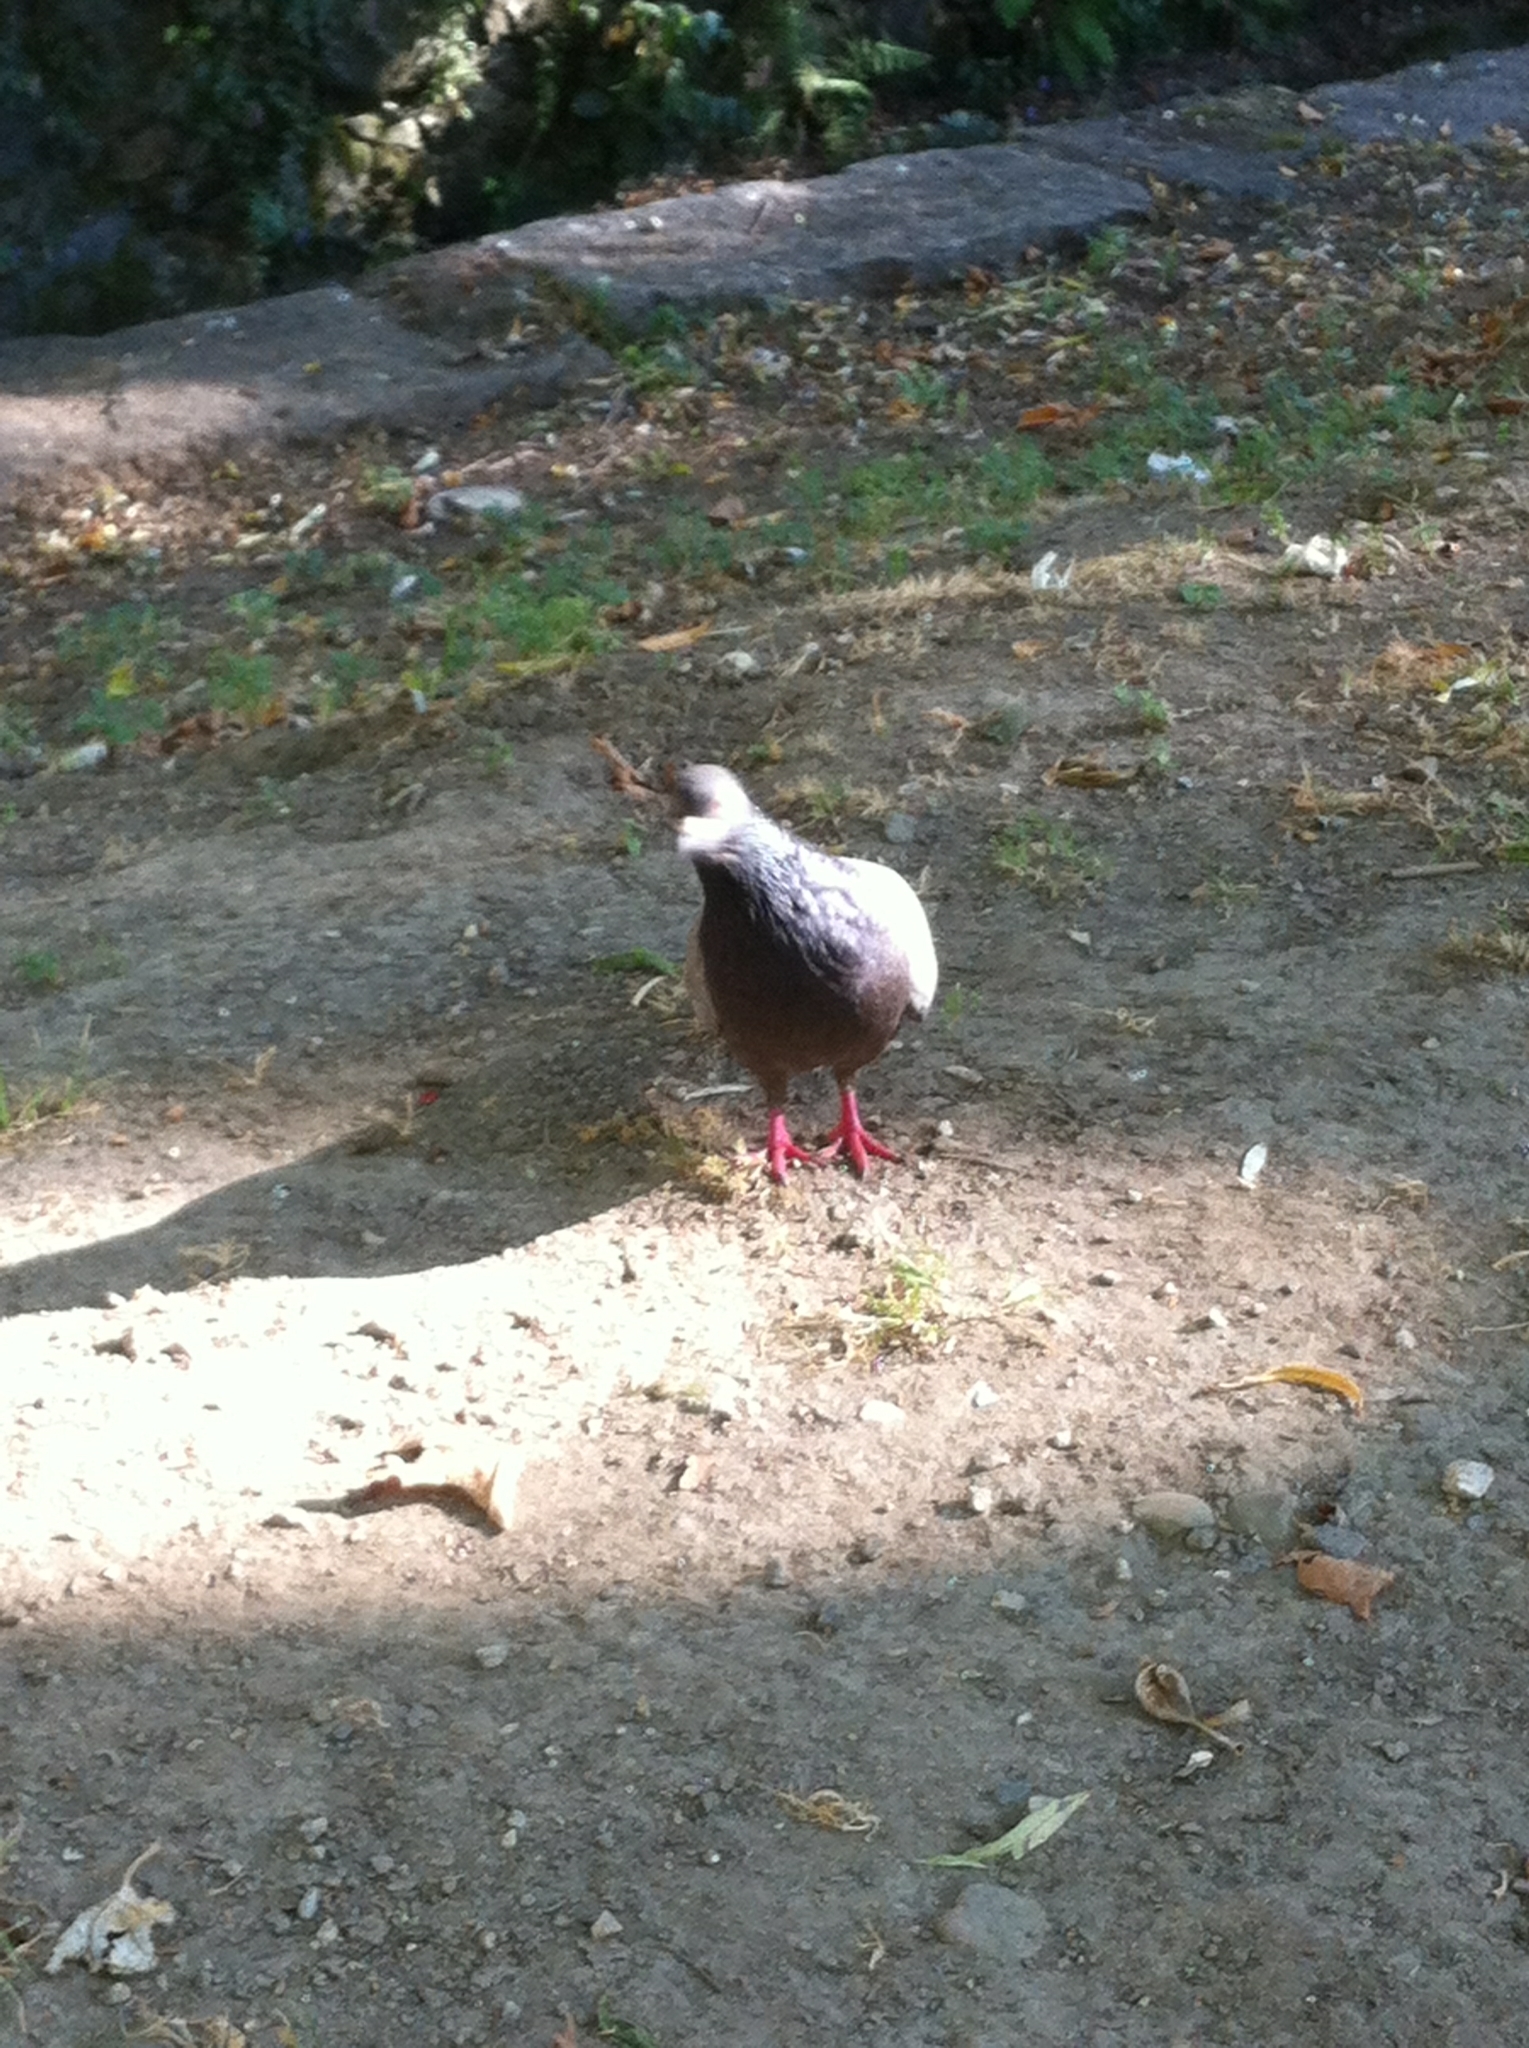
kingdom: Animalia
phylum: Chordata
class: Aves
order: Columbiformes
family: Columbidae
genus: Columba
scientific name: Columba livia
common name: Rock pigeon
